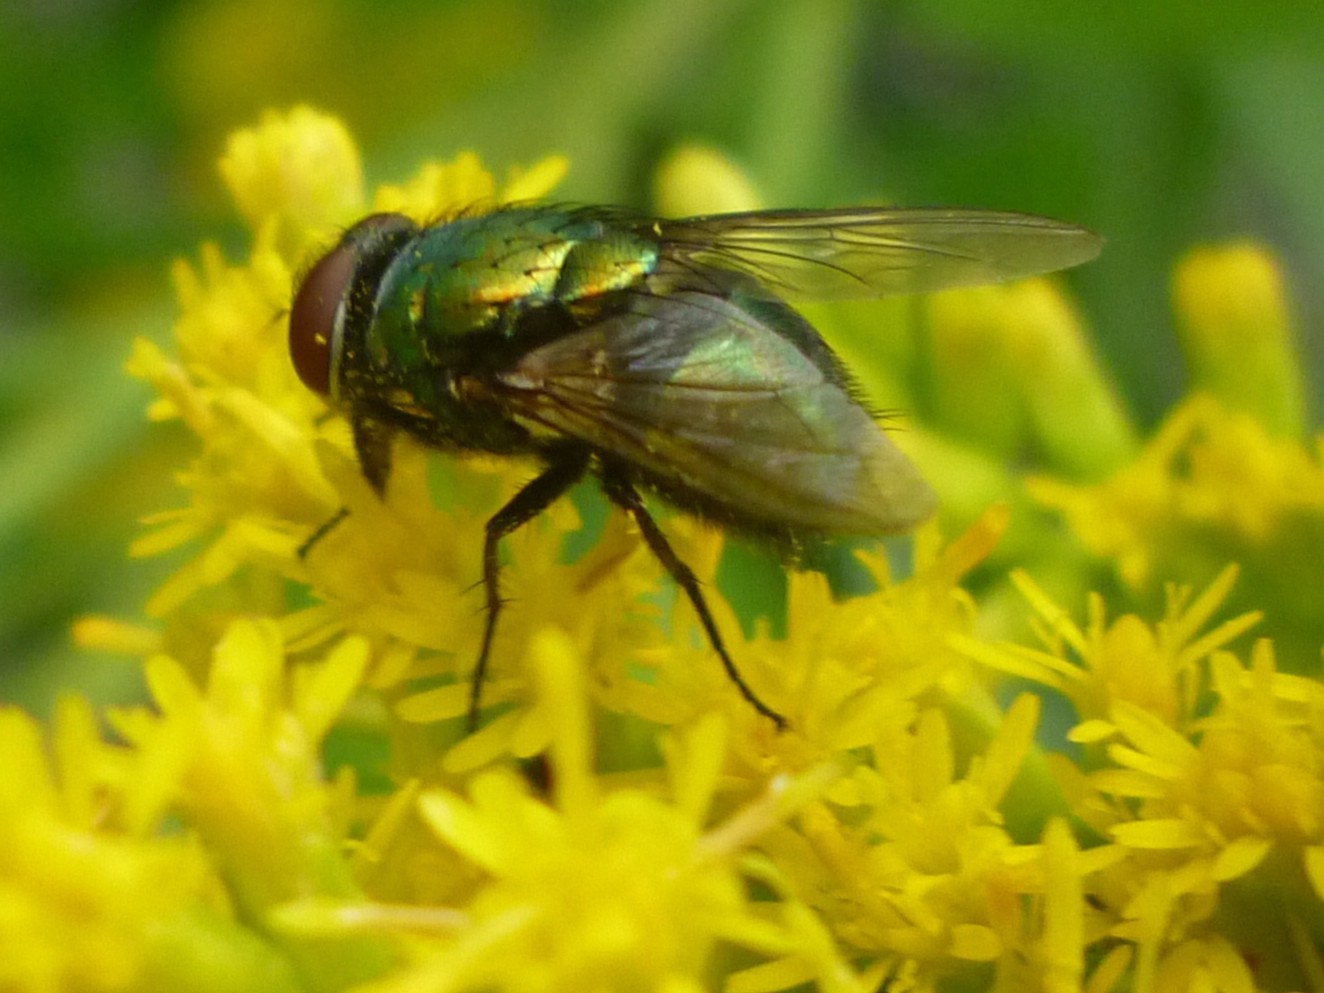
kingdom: Animalia
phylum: Arthropoda
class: Insecta
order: Diptera
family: Calliphoridae
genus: Lucilia
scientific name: Lucilia sericata
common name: Blow fly
